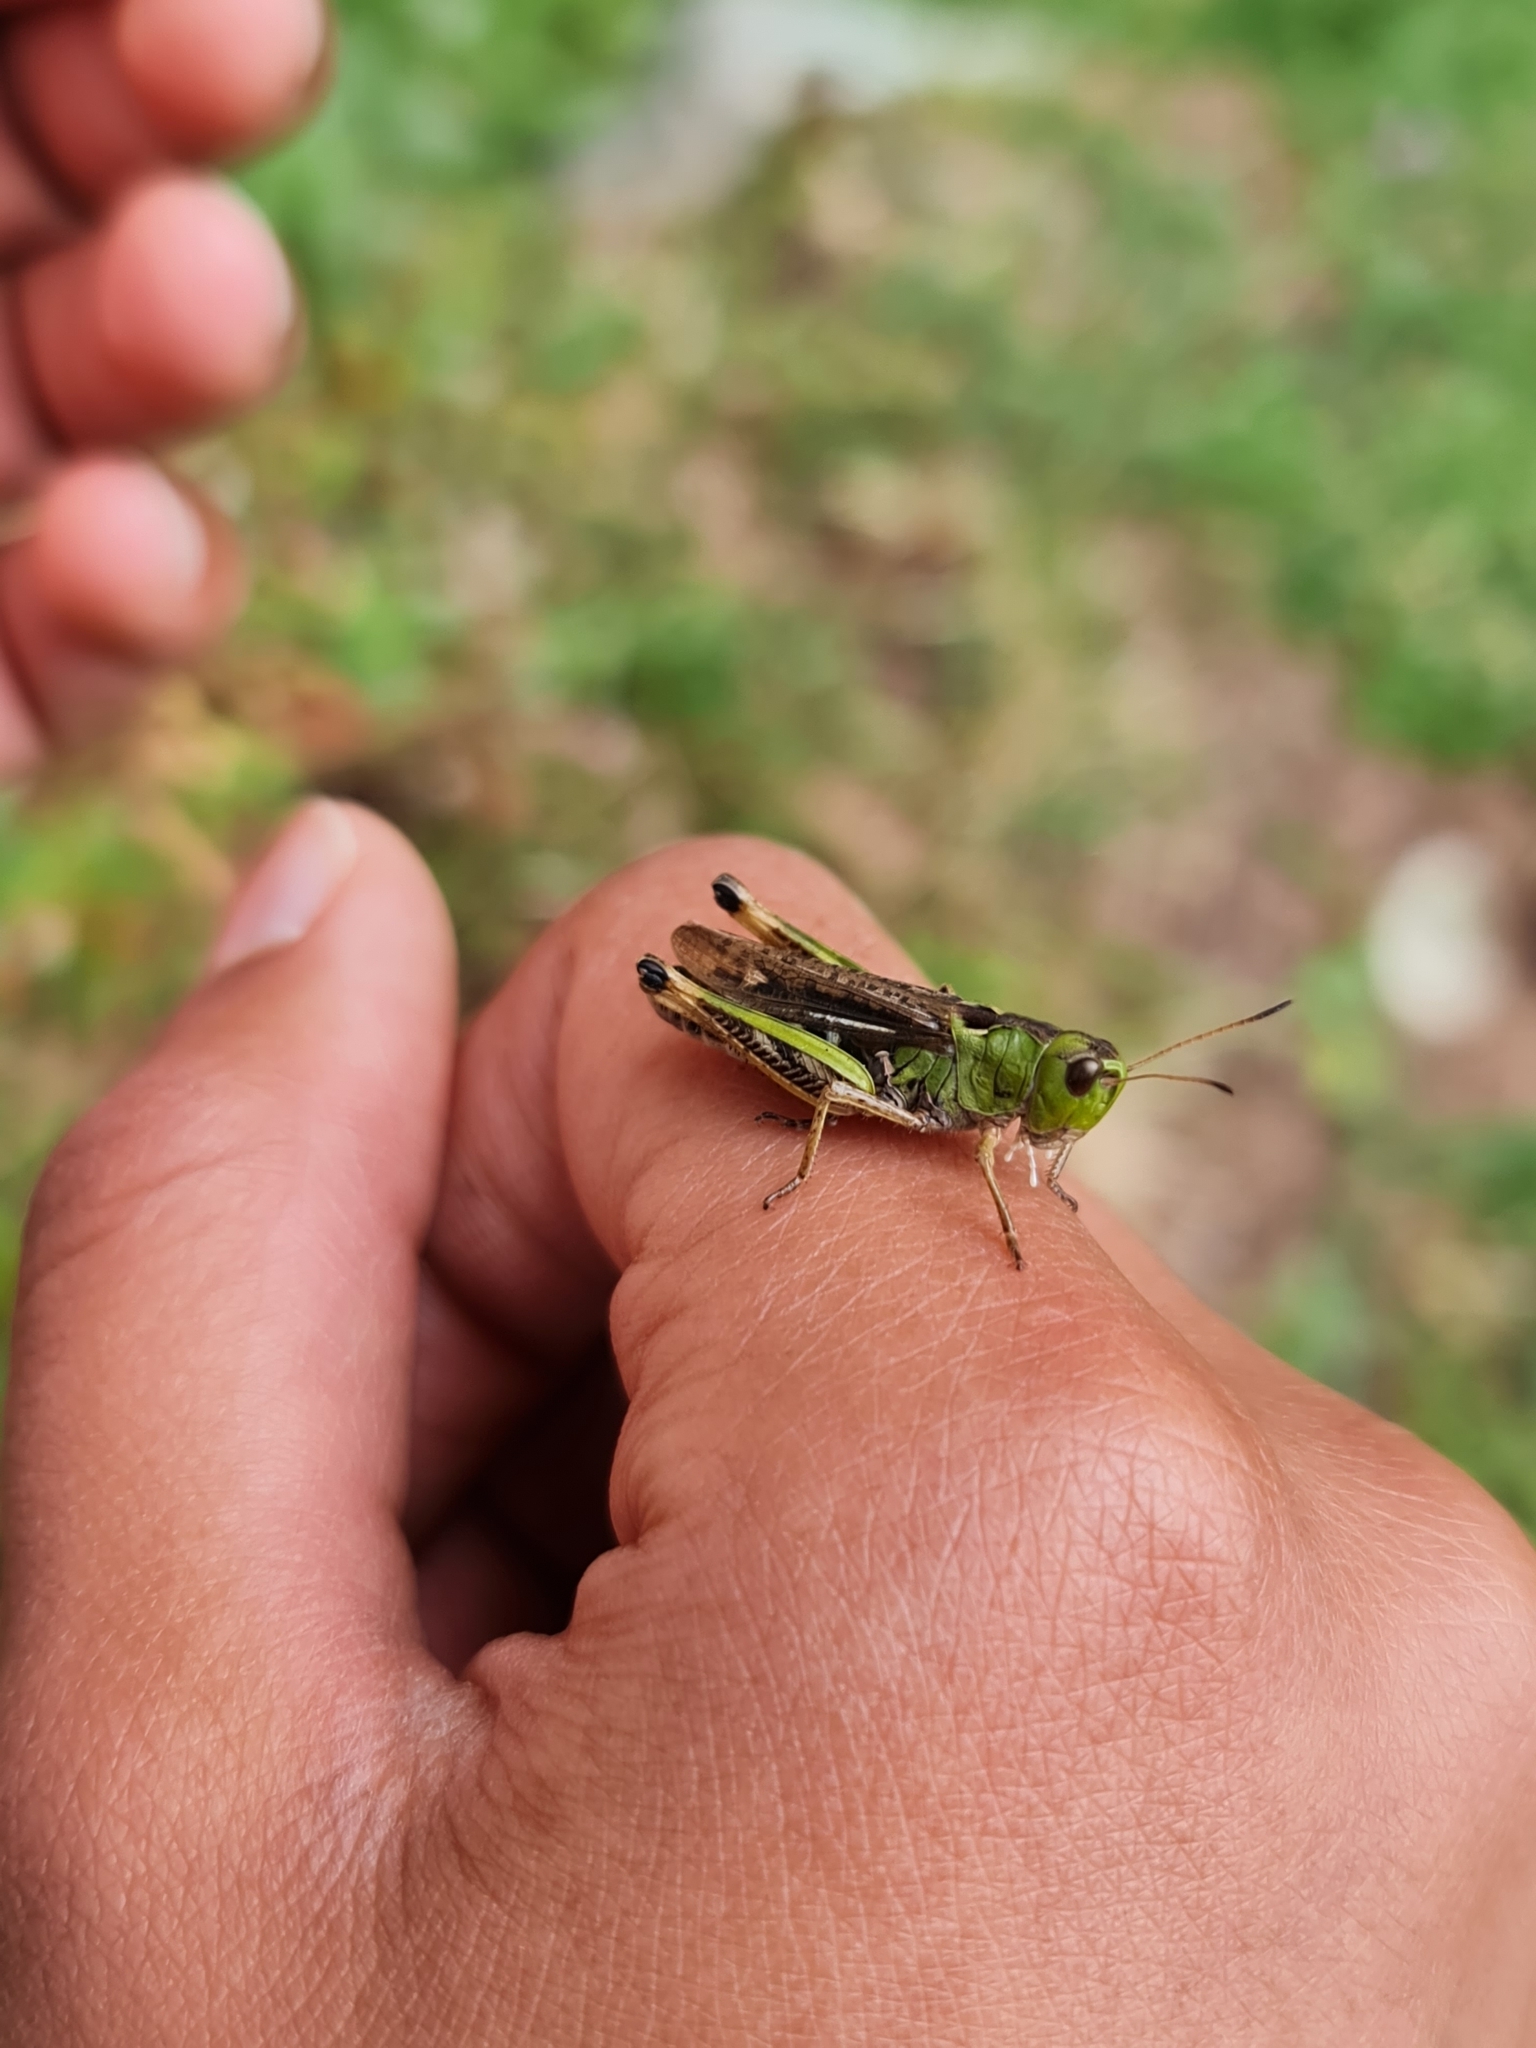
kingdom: Animalia
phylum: Arthropoda
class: Insecta
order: Orthoptera
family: Acrididae
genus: Gomphocerus
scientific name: Gomphocerus sibiricus
